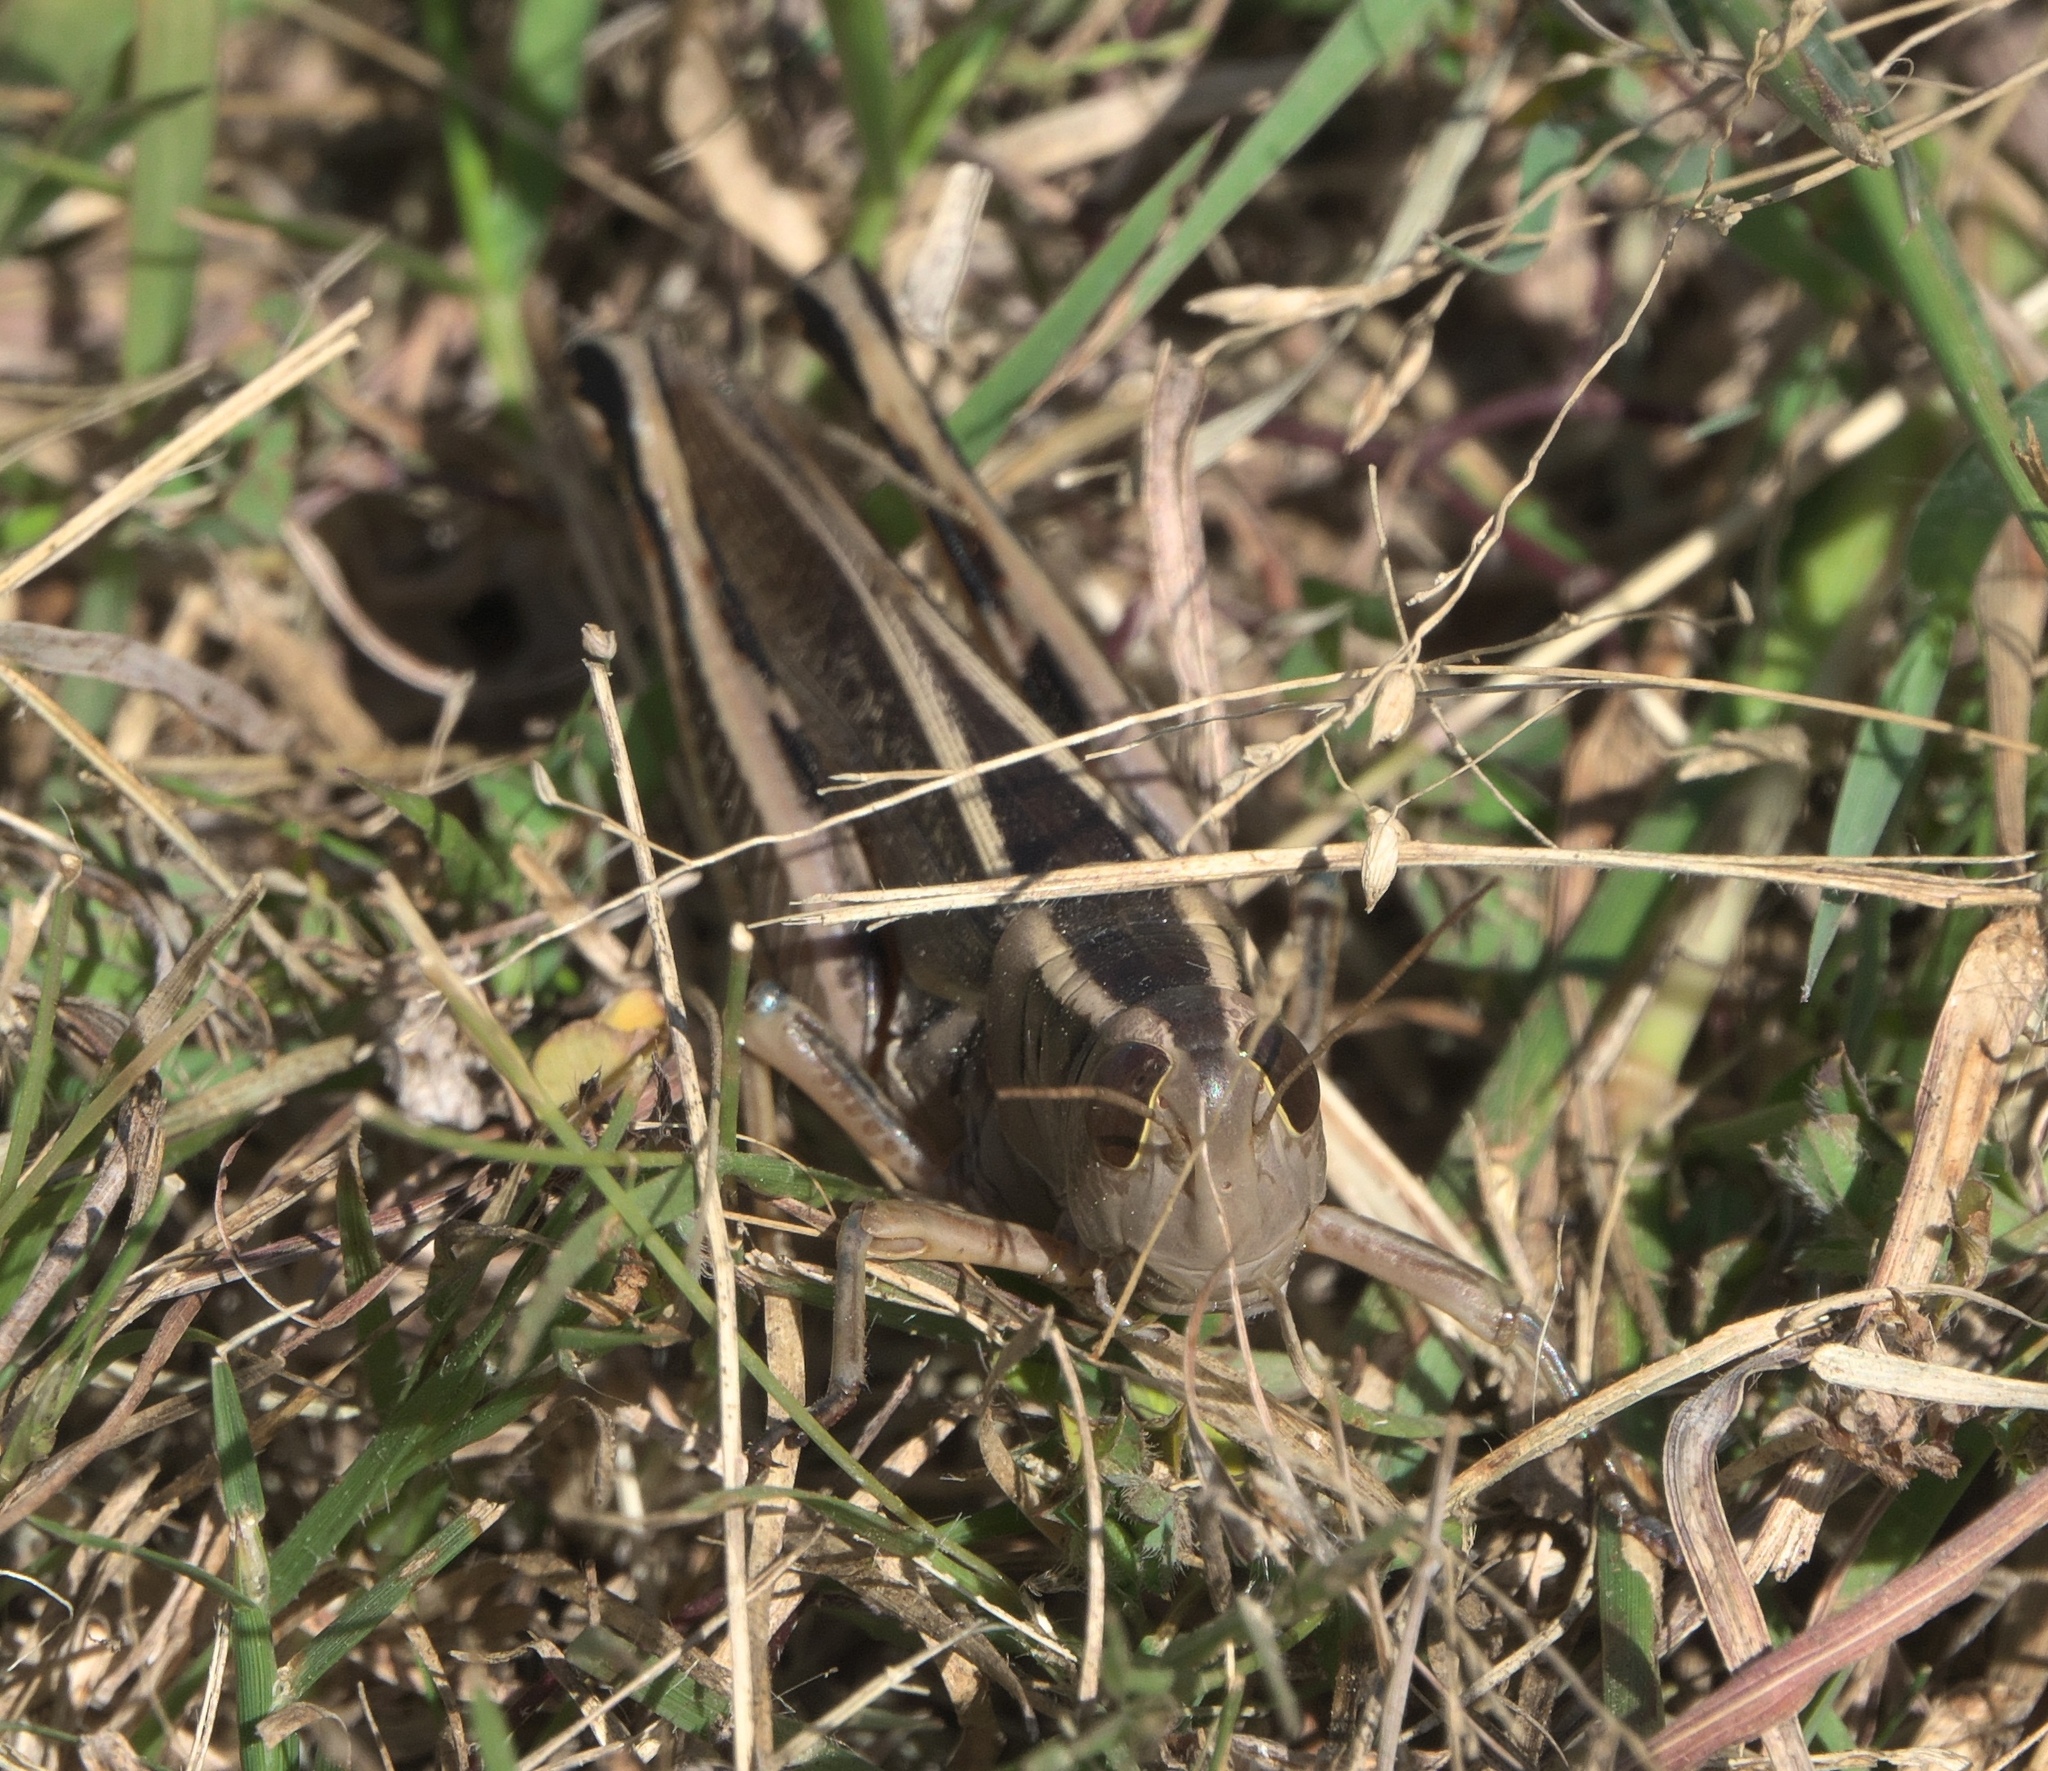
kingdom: Animalia
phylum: Arthropoda
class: Insecta
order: Orthoptera
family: Acrididae
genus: Melanoplus
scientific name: Melanoplus bivittatus
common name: Two-striped grasshopper
